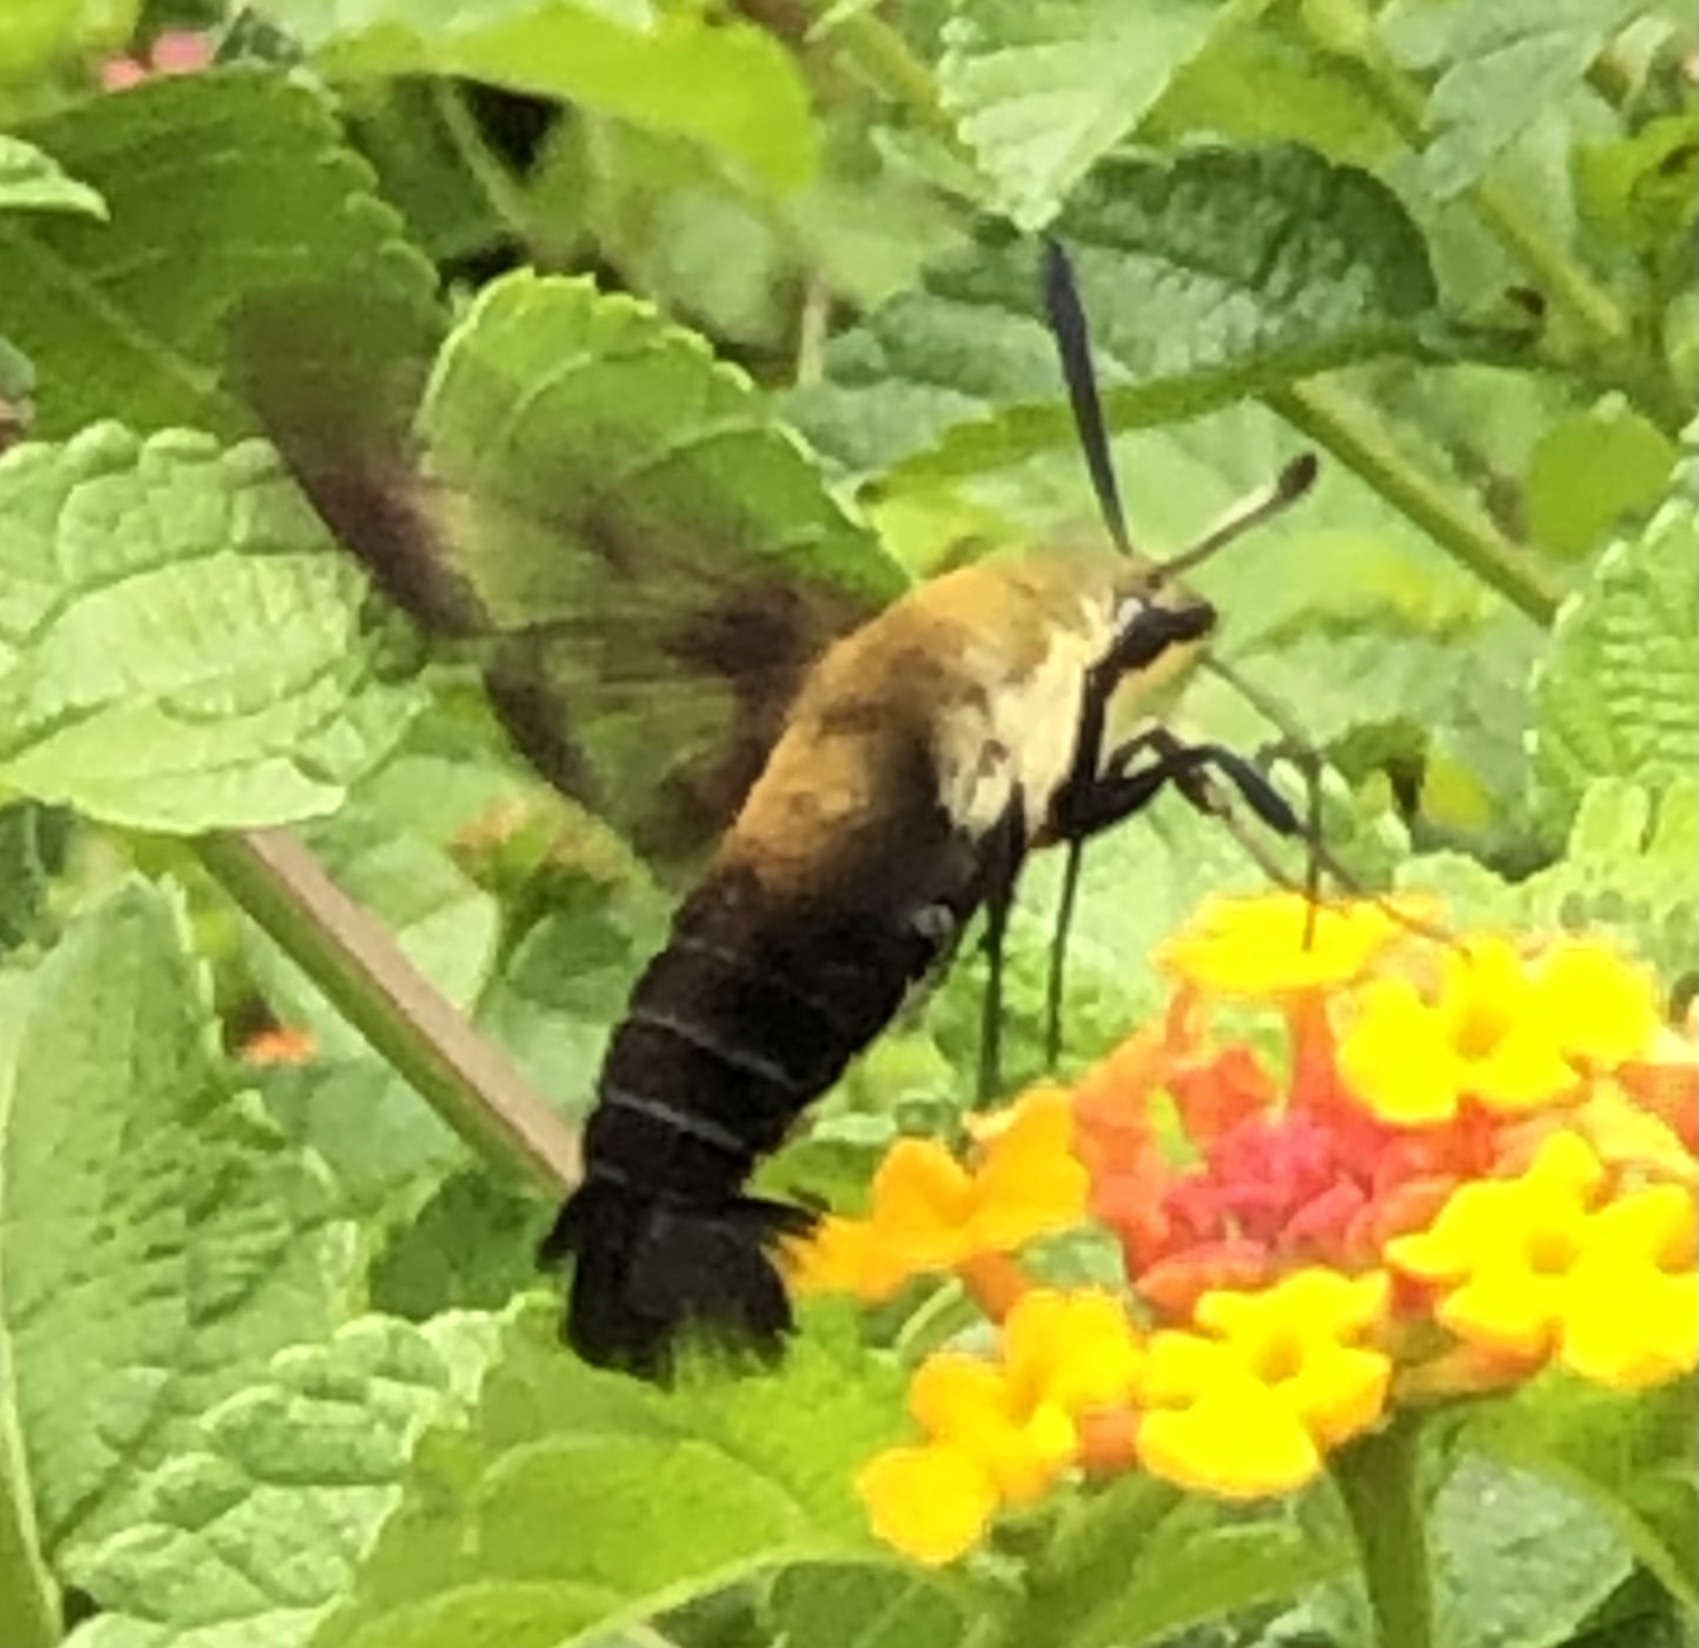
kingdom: Animalia
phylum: Arthropoda
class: Insecta
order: Lepidoptera
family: Sphingidae
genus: Hemaris
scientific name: Hemaris diffinis
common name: Bumblebee moth
